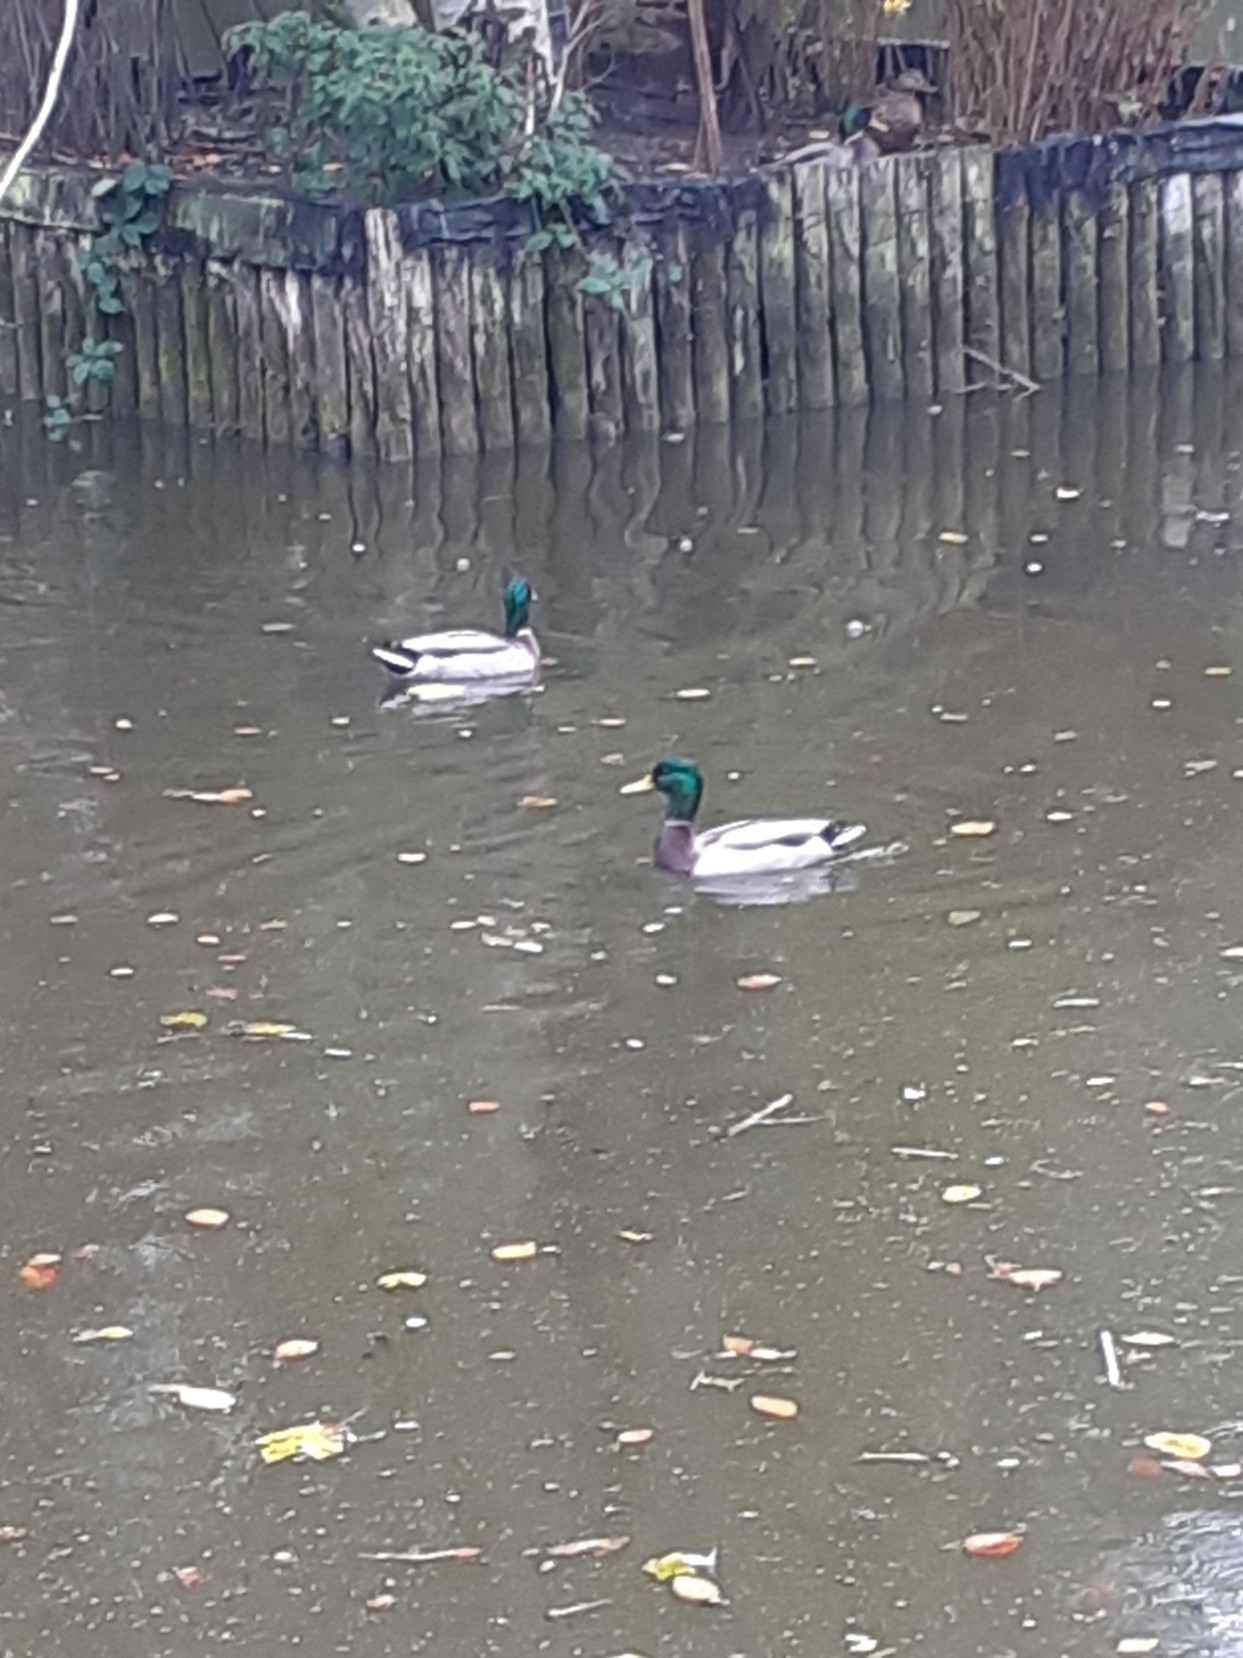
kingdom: Animalia
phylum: Chordata
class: Aves
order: Anseriformes
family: Anatidae
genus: Anas
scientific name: Anas platyrhynchos
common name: Mallard
